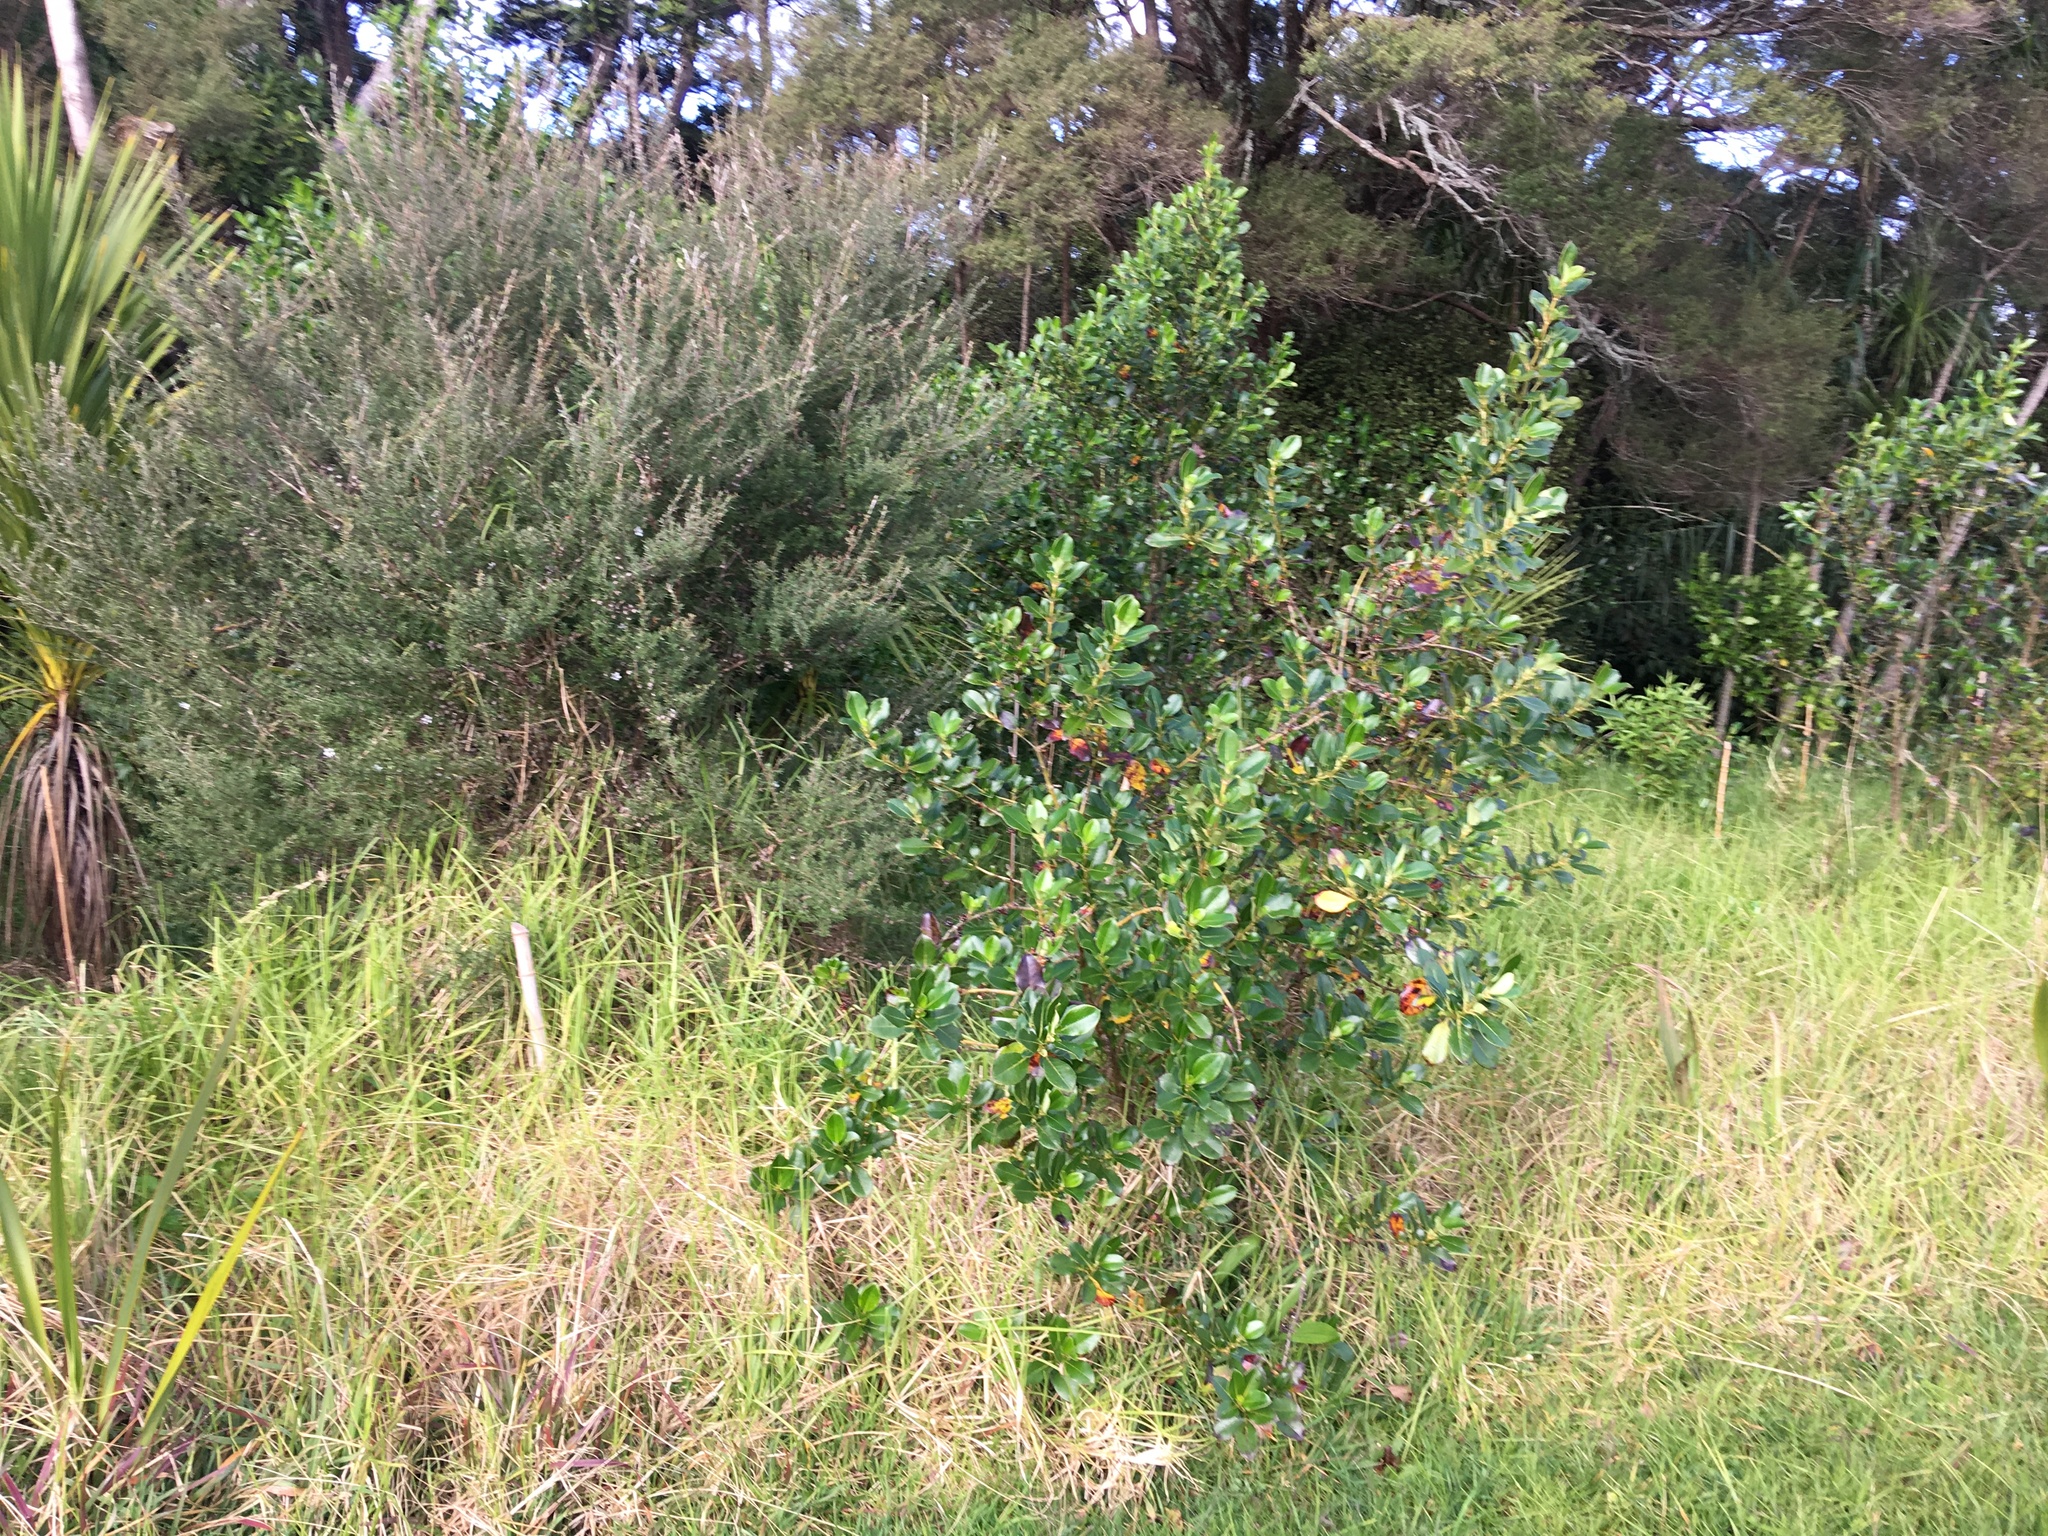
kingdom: Plantae
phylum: Tracheophyta
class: Magnoliopsida
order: Gentianales
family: Rubiaceae
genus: Coprosma
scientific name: Coprosma robusta
